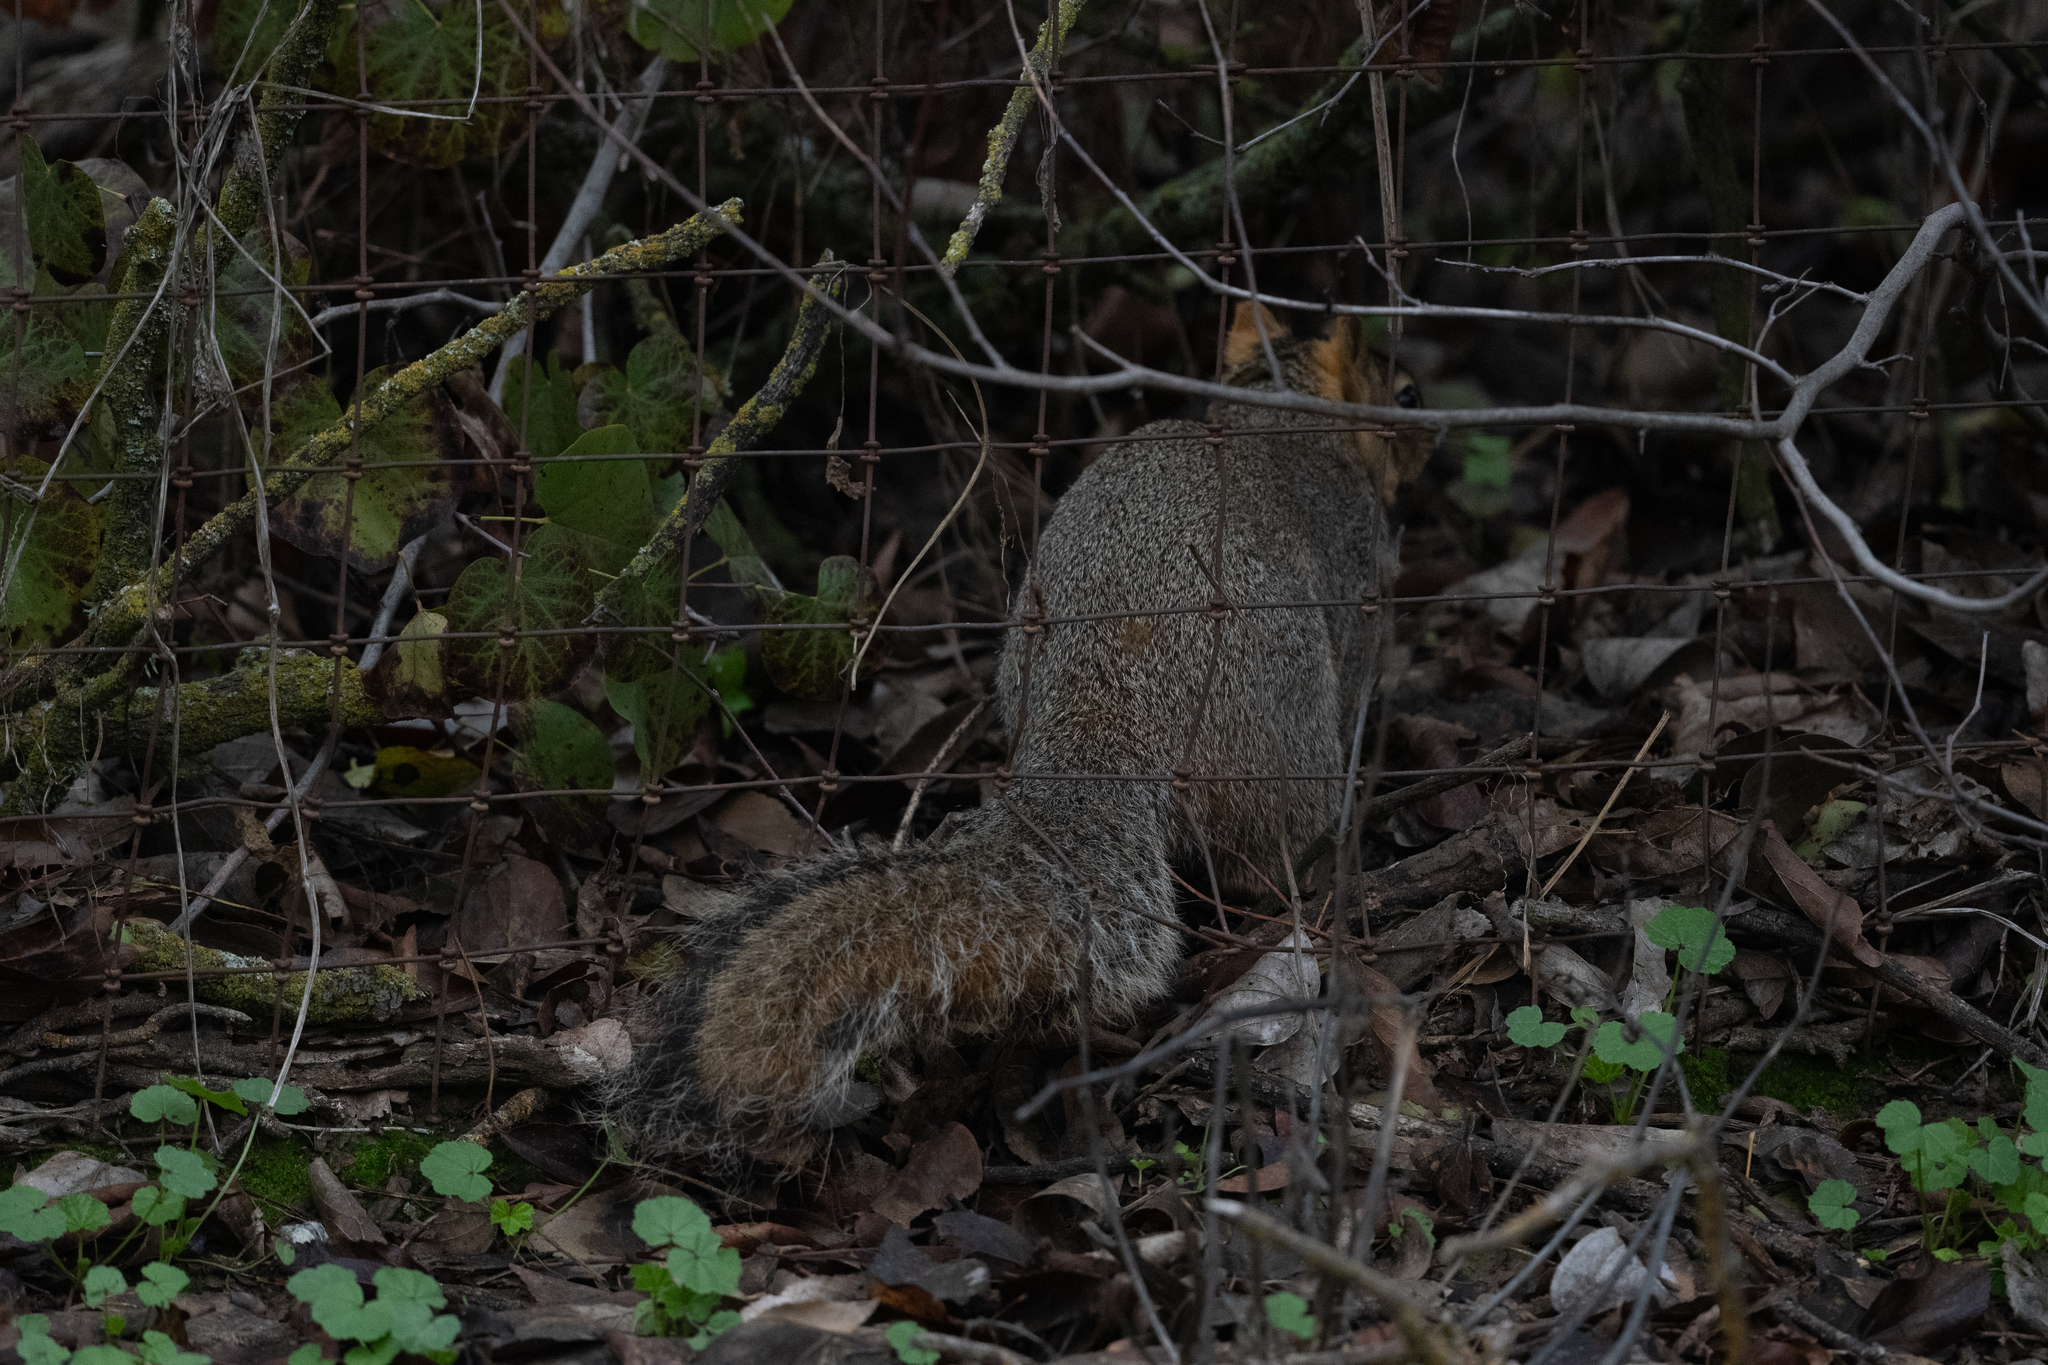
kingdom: Animalia
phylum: Chordata
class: Mammalia
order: Rodentia
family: Sciuridae
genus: Sciurus
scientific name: Sciurus carolinensis
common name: Eastern gray squirrel
